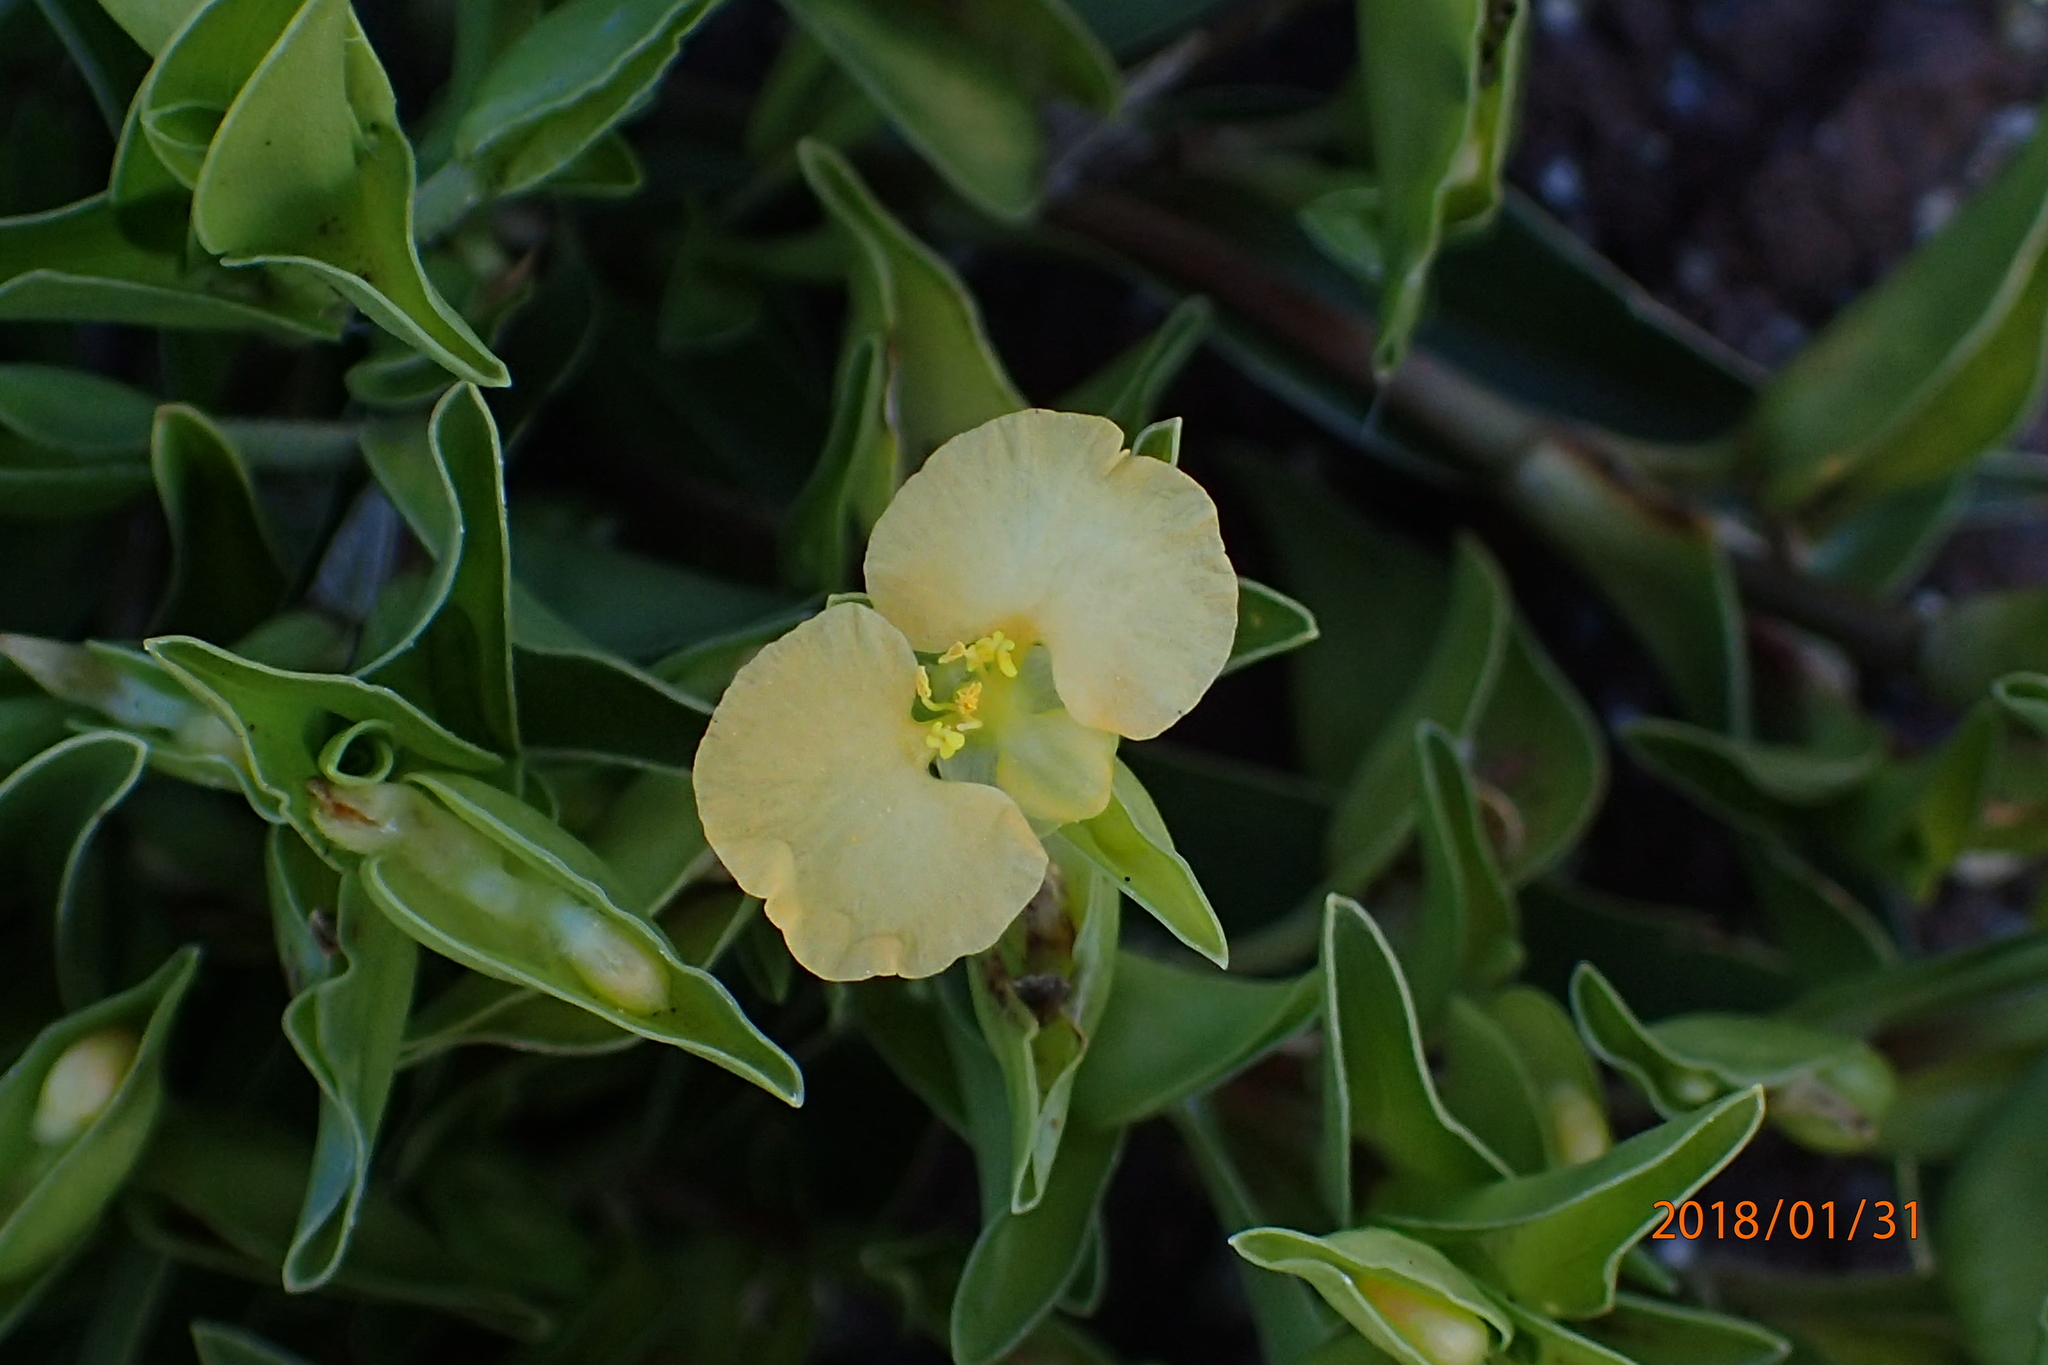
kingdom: Plantae
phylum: Tracheophyta
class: Liliopsida
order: Commelinales
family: Commelinaceae
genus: Commelina
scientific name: Commelina africana
